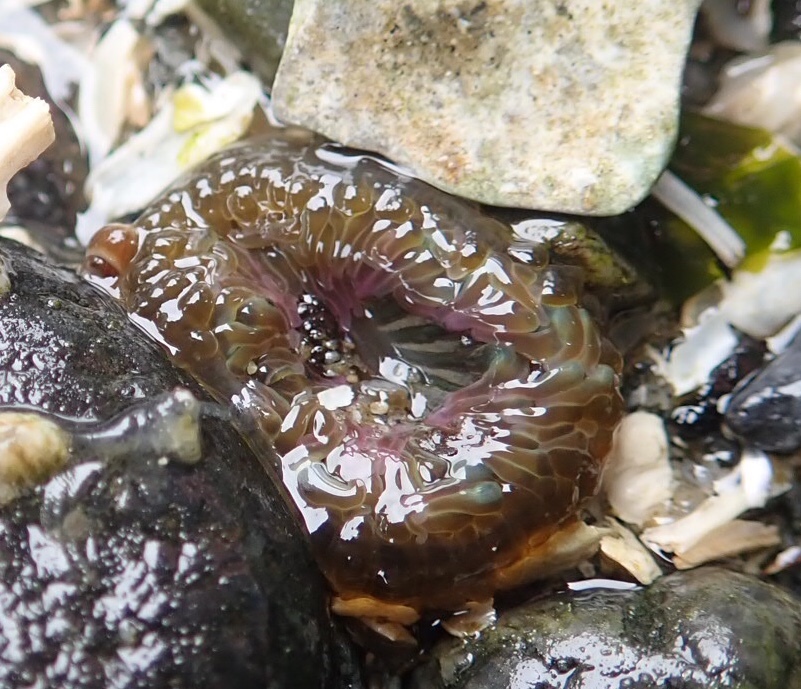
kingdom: Animalia
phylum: Cnidaria
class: Anthozoa
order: Actiniaria
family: Actiniidae
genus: Anthopleura
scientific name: Anthopleura elegantissima
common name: Clonal anemone
